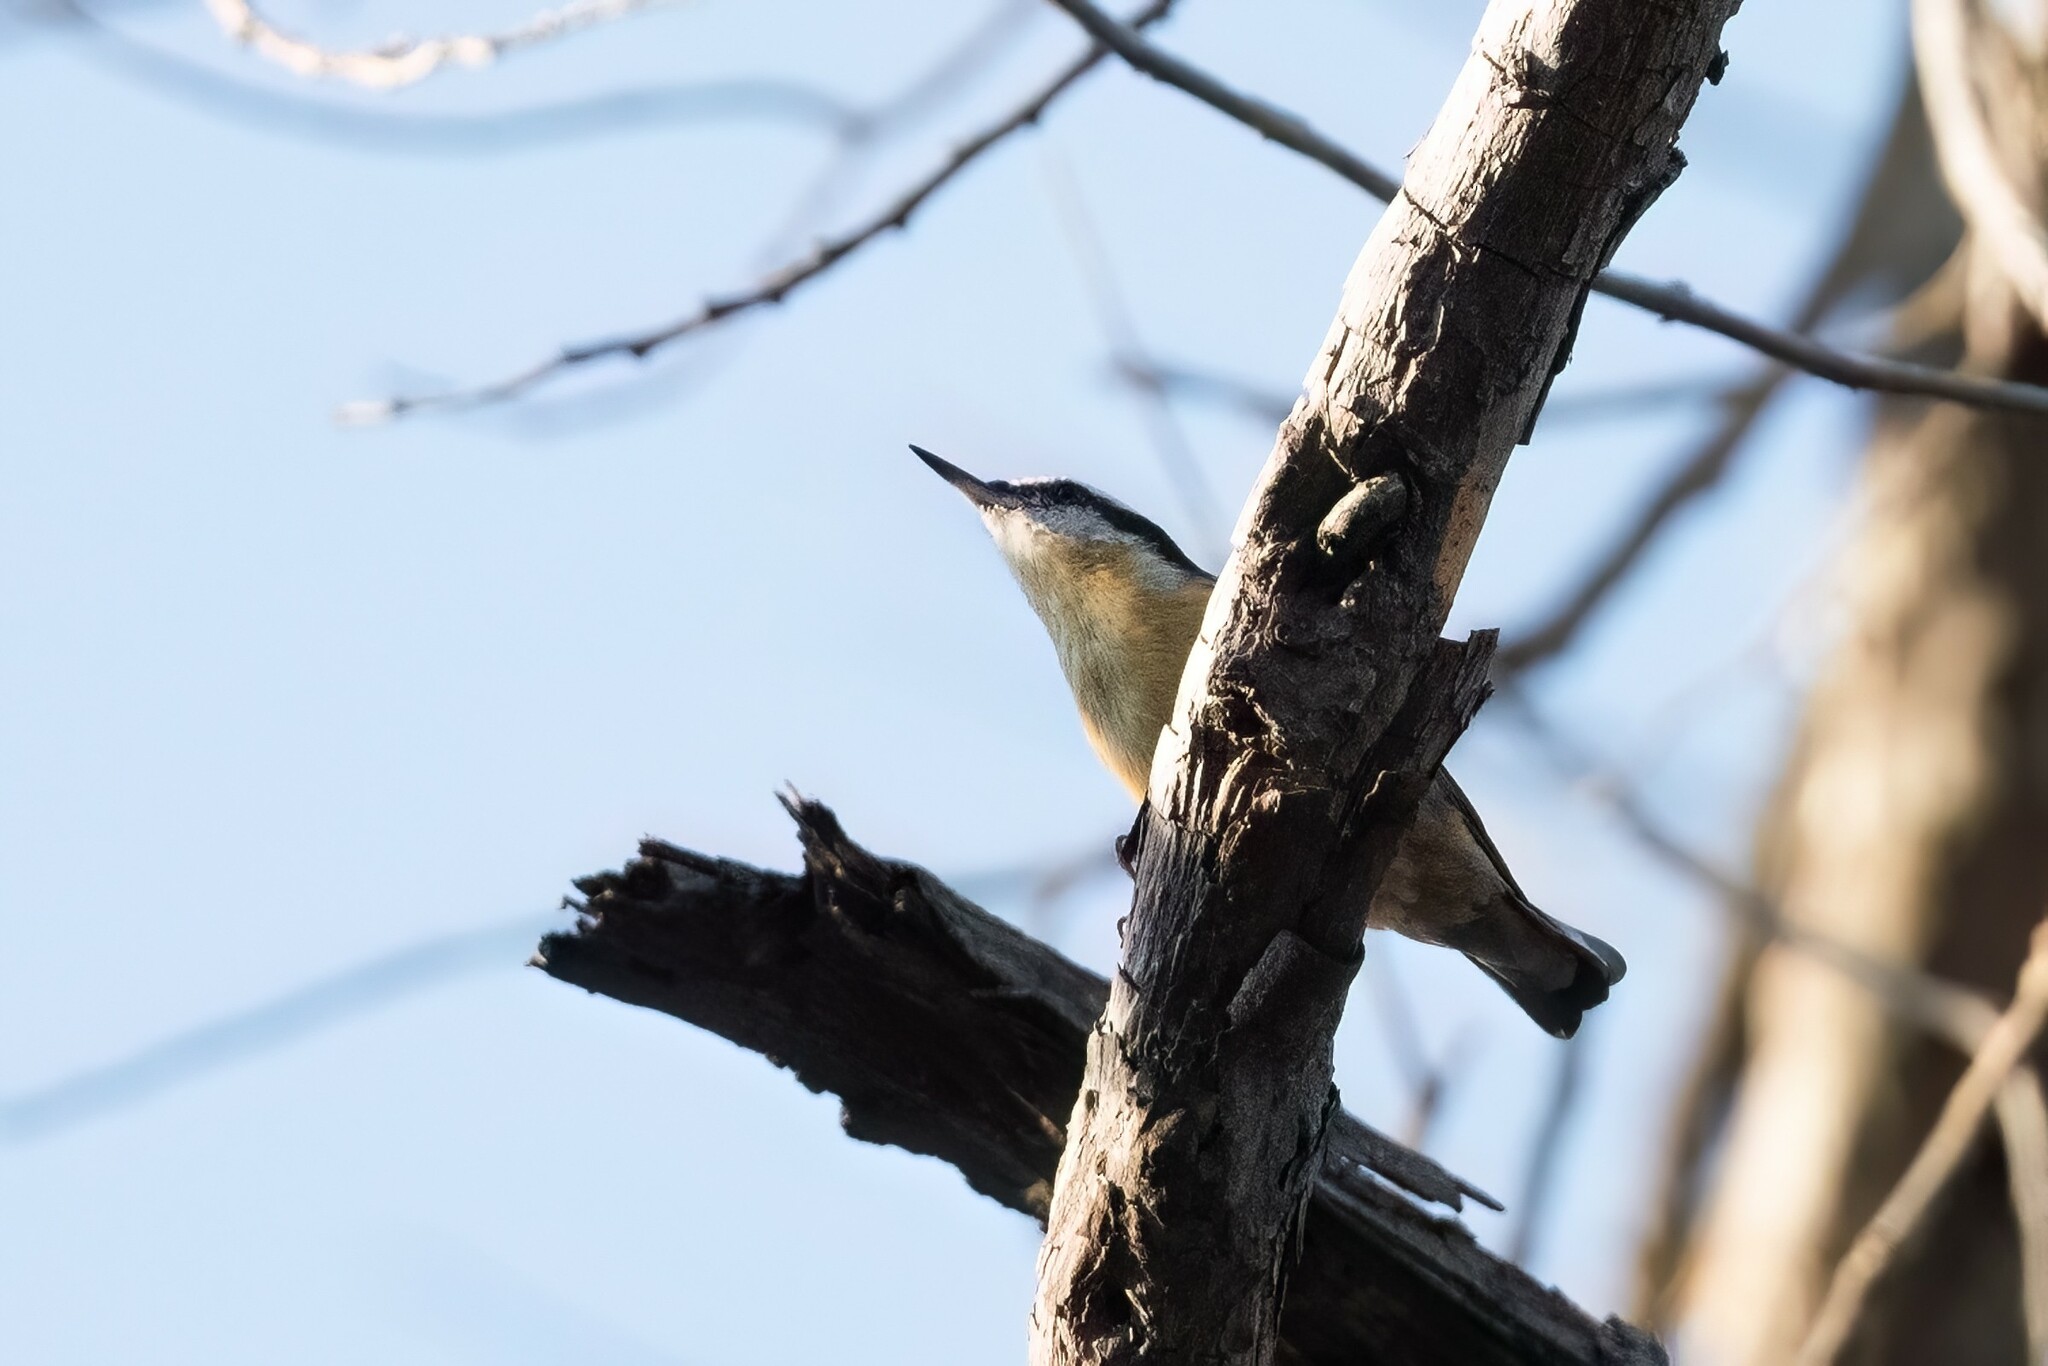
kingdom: Animalia
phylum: Chordata
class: Aves
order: Passeriformes
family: Sittidae
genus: Sitta
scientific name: Sitta canadensis
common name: Red-breasted nuthatch
